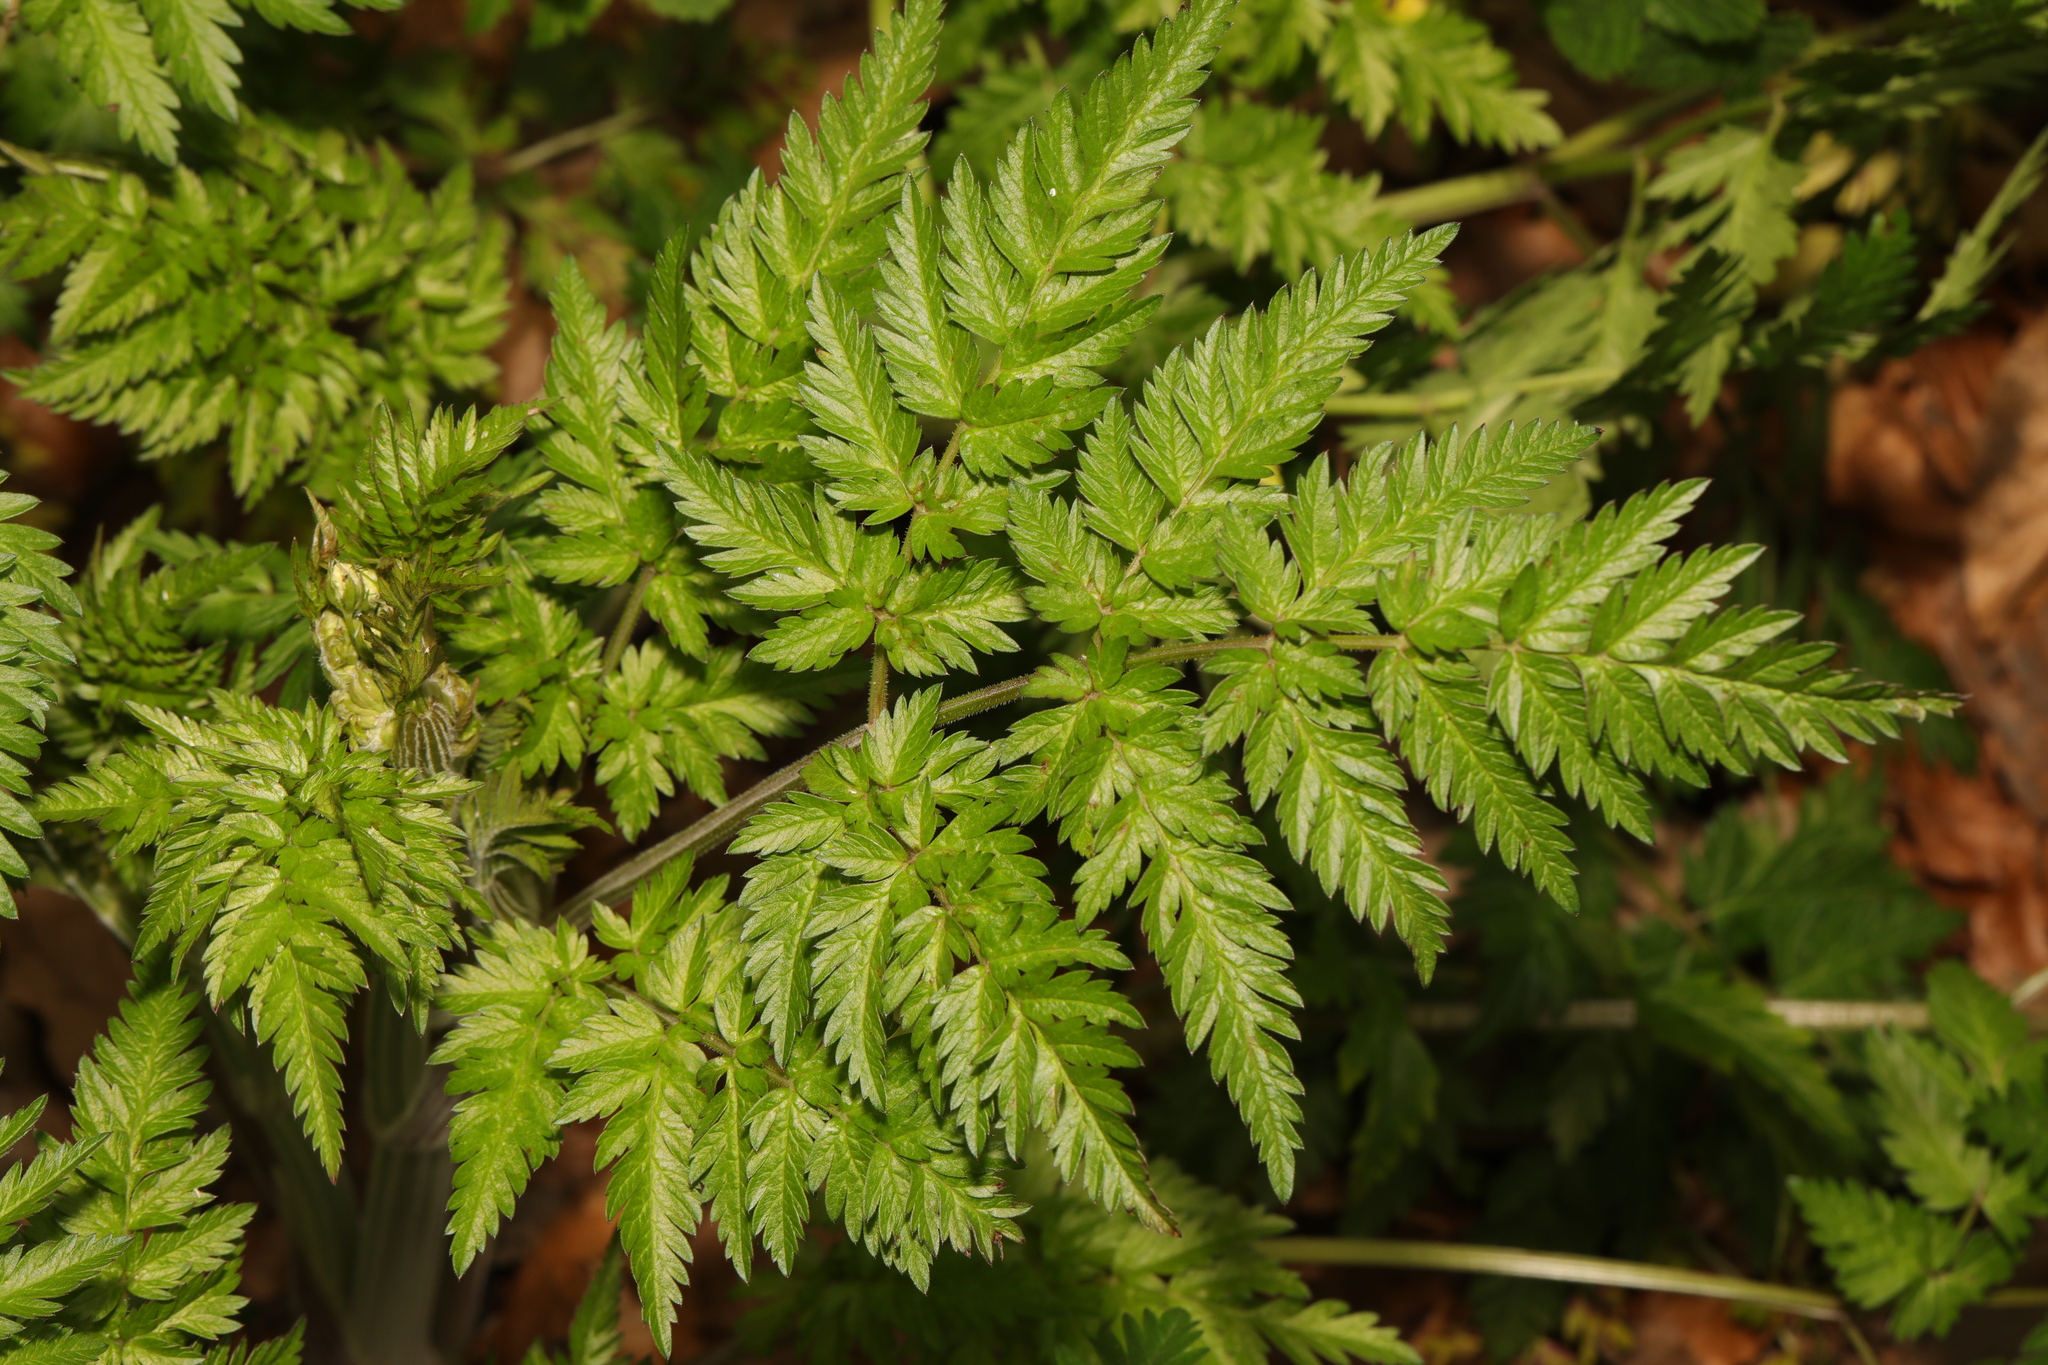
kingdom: Plantae
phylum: Tracheophyta
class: Magnoliopsida
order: Apiales
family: Apiaceae
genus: Anthriscus
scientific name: Anthriscus sylvestris
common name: Cow parsley
